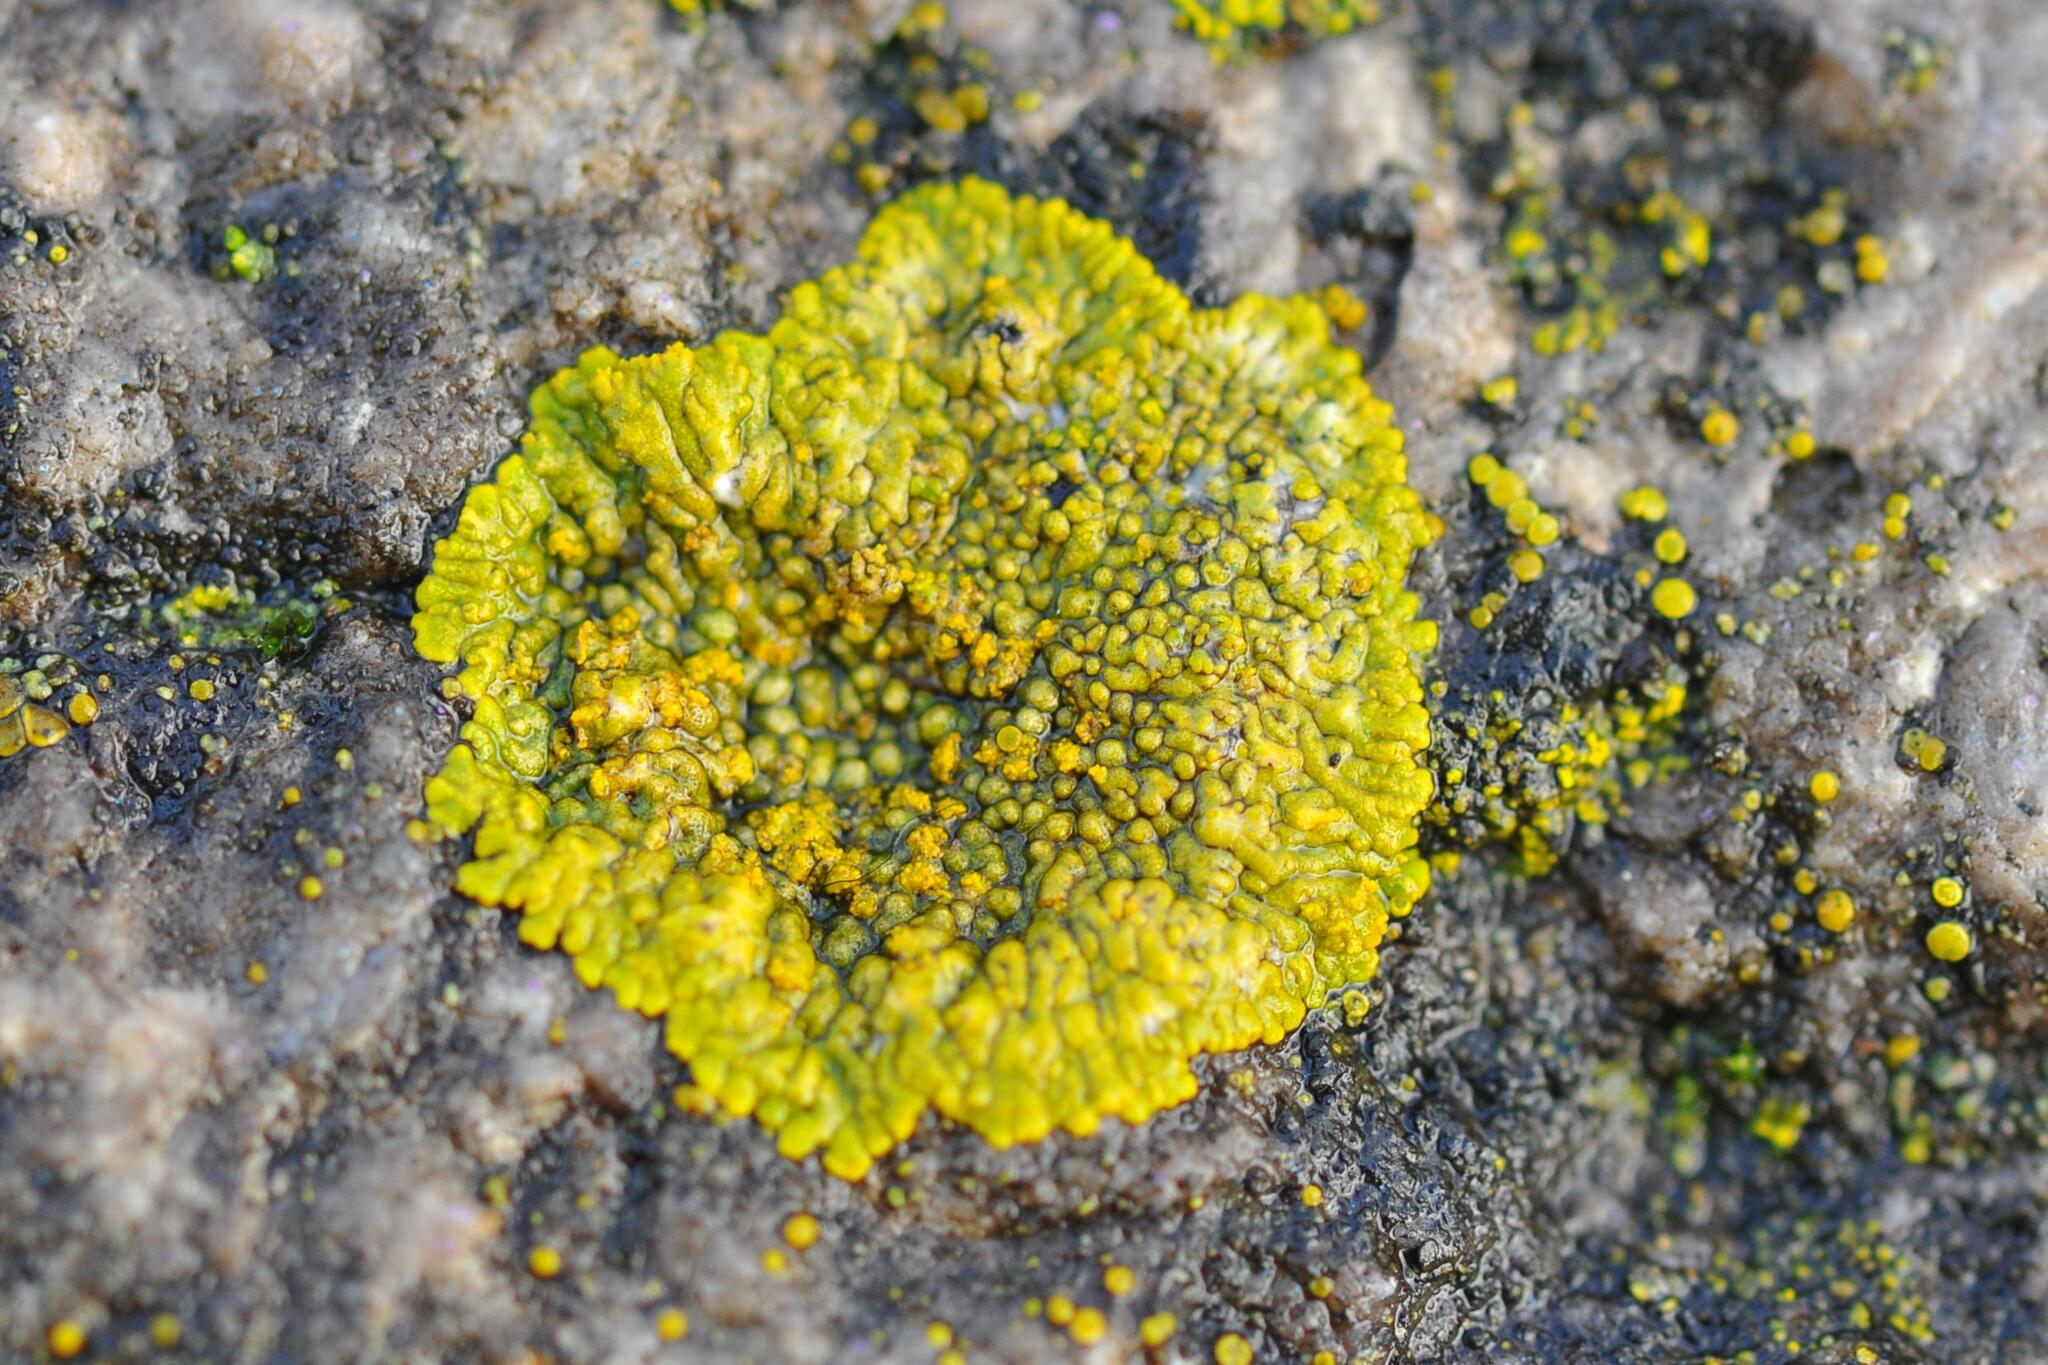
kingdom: Fungi
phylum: Ascomycota
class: Lecanoromycetes
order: Teloschistales
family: Teloschistaceae
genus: Calogaya
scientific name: Calogaya decipiens
